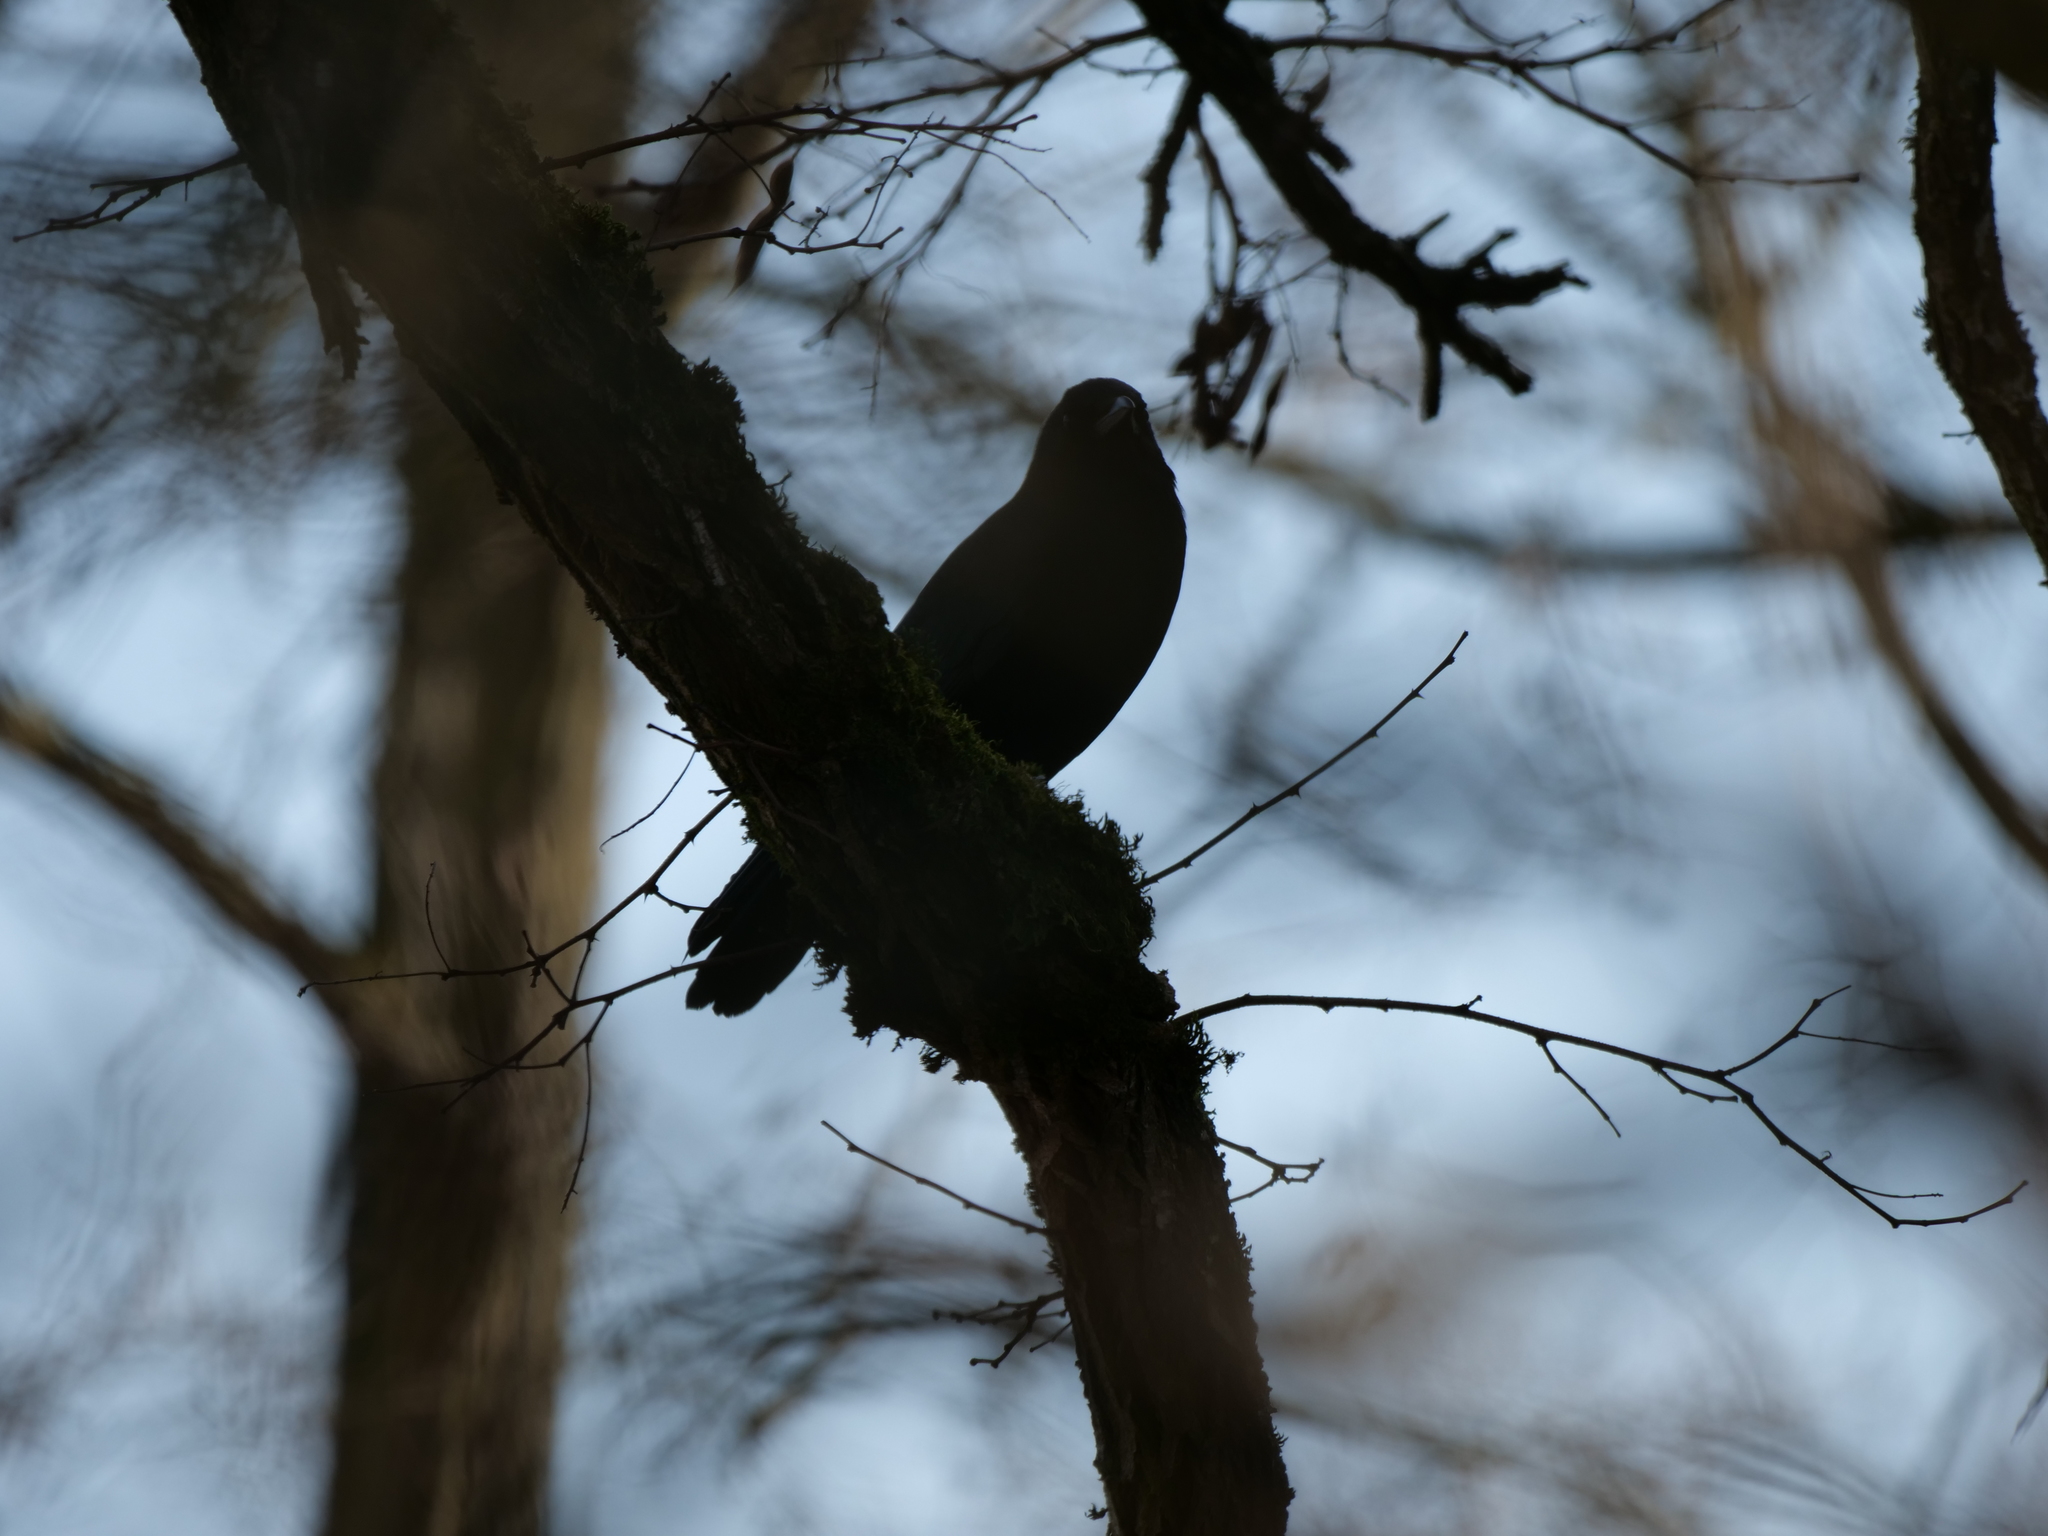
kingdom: Animalia
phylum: Chordata
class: Aves
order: Passeriformes
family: Corvidae
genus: Corvus
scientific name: Corvus brachyrhynchos
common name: American crow
